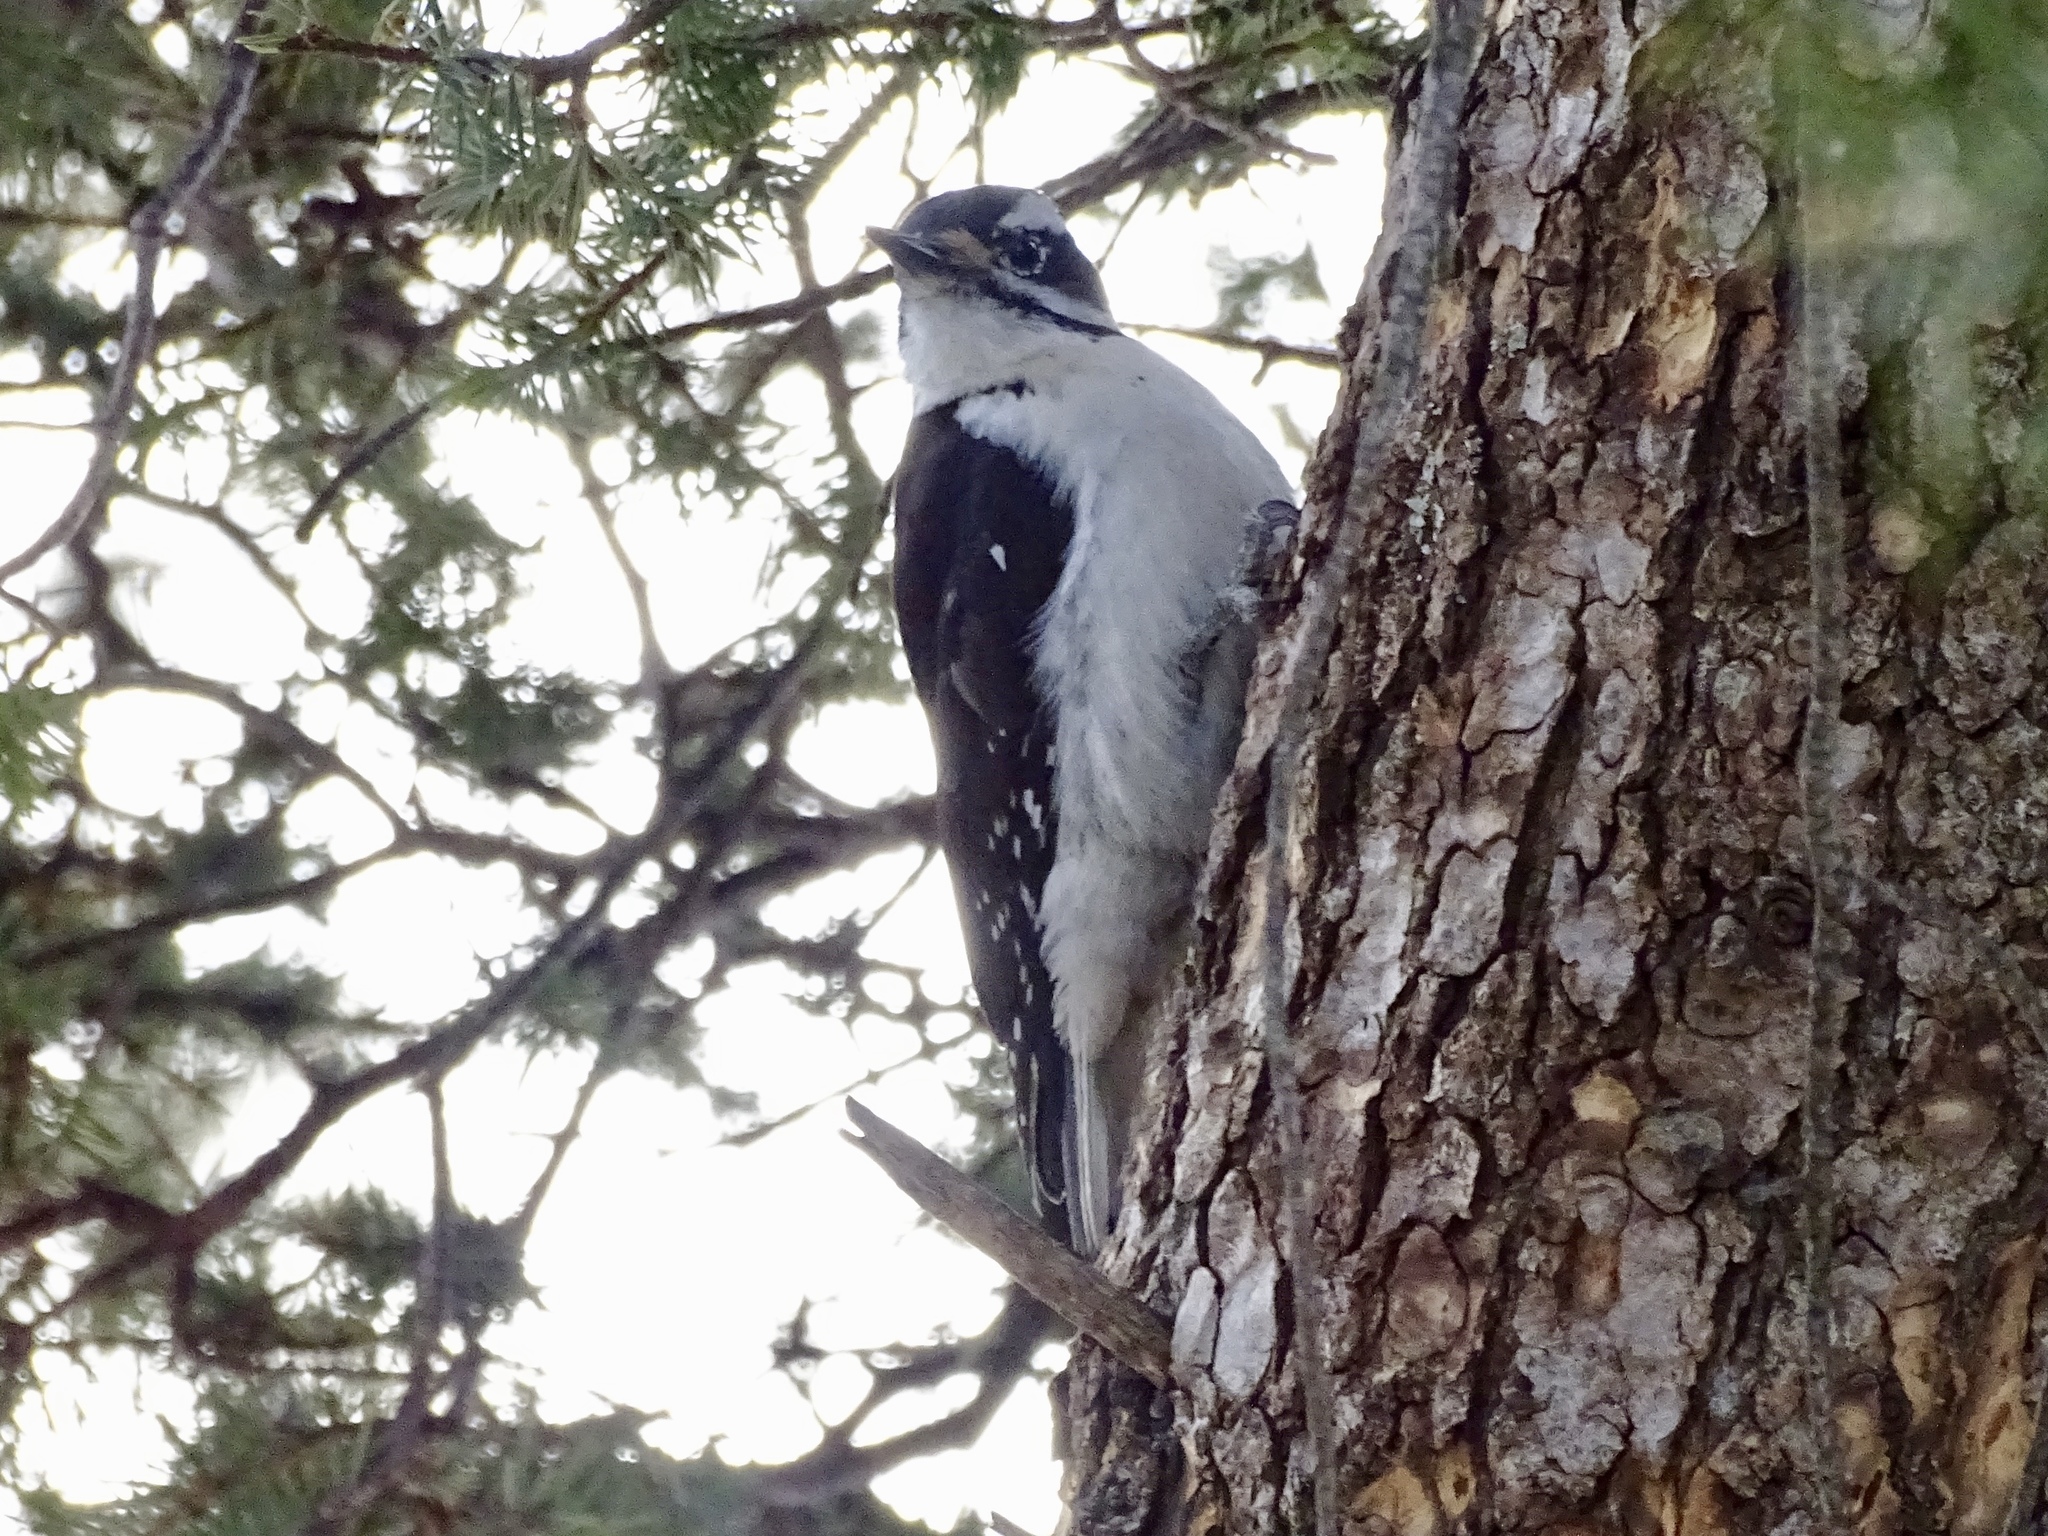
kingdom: Animalia
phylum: Chordata
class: Aves
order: Piciformes
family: Picidae
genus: Leuconotopicus
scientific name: Leuconotopicus villosus
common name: Hairy woodpecker
